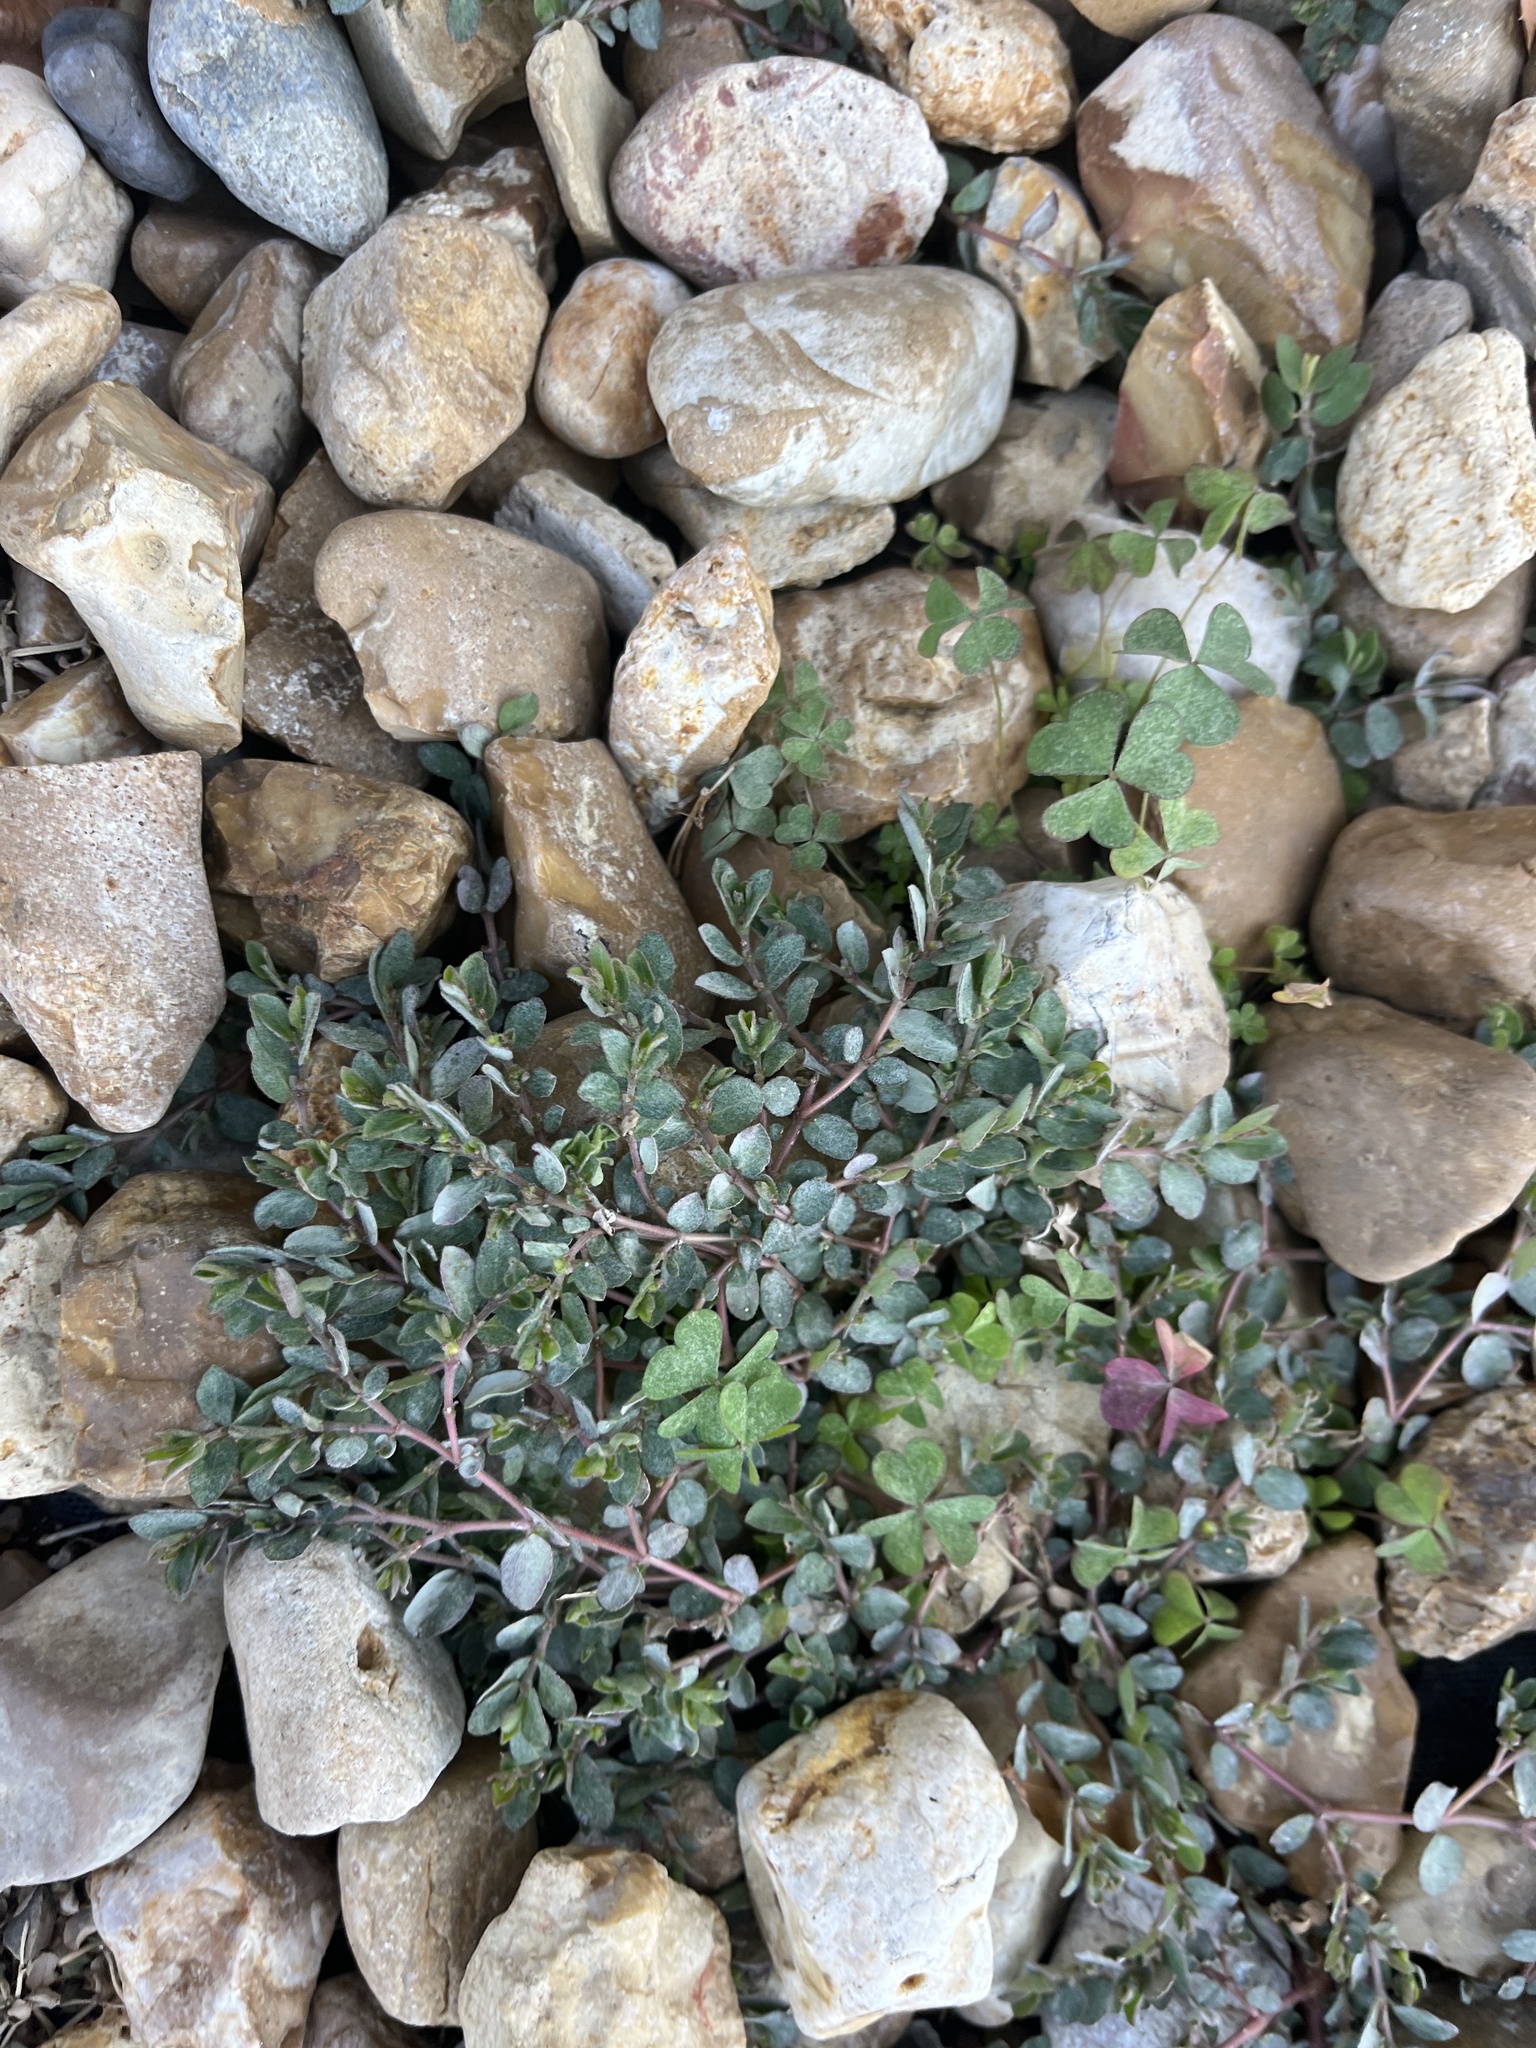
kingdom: Plantae
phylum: Tracheophyta
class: Magnoliopsida
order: Malpighiales
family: Euphorbiaceae
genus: Euphorbia
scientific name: Euphorbia prostrata
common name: Prostrate sandmat
